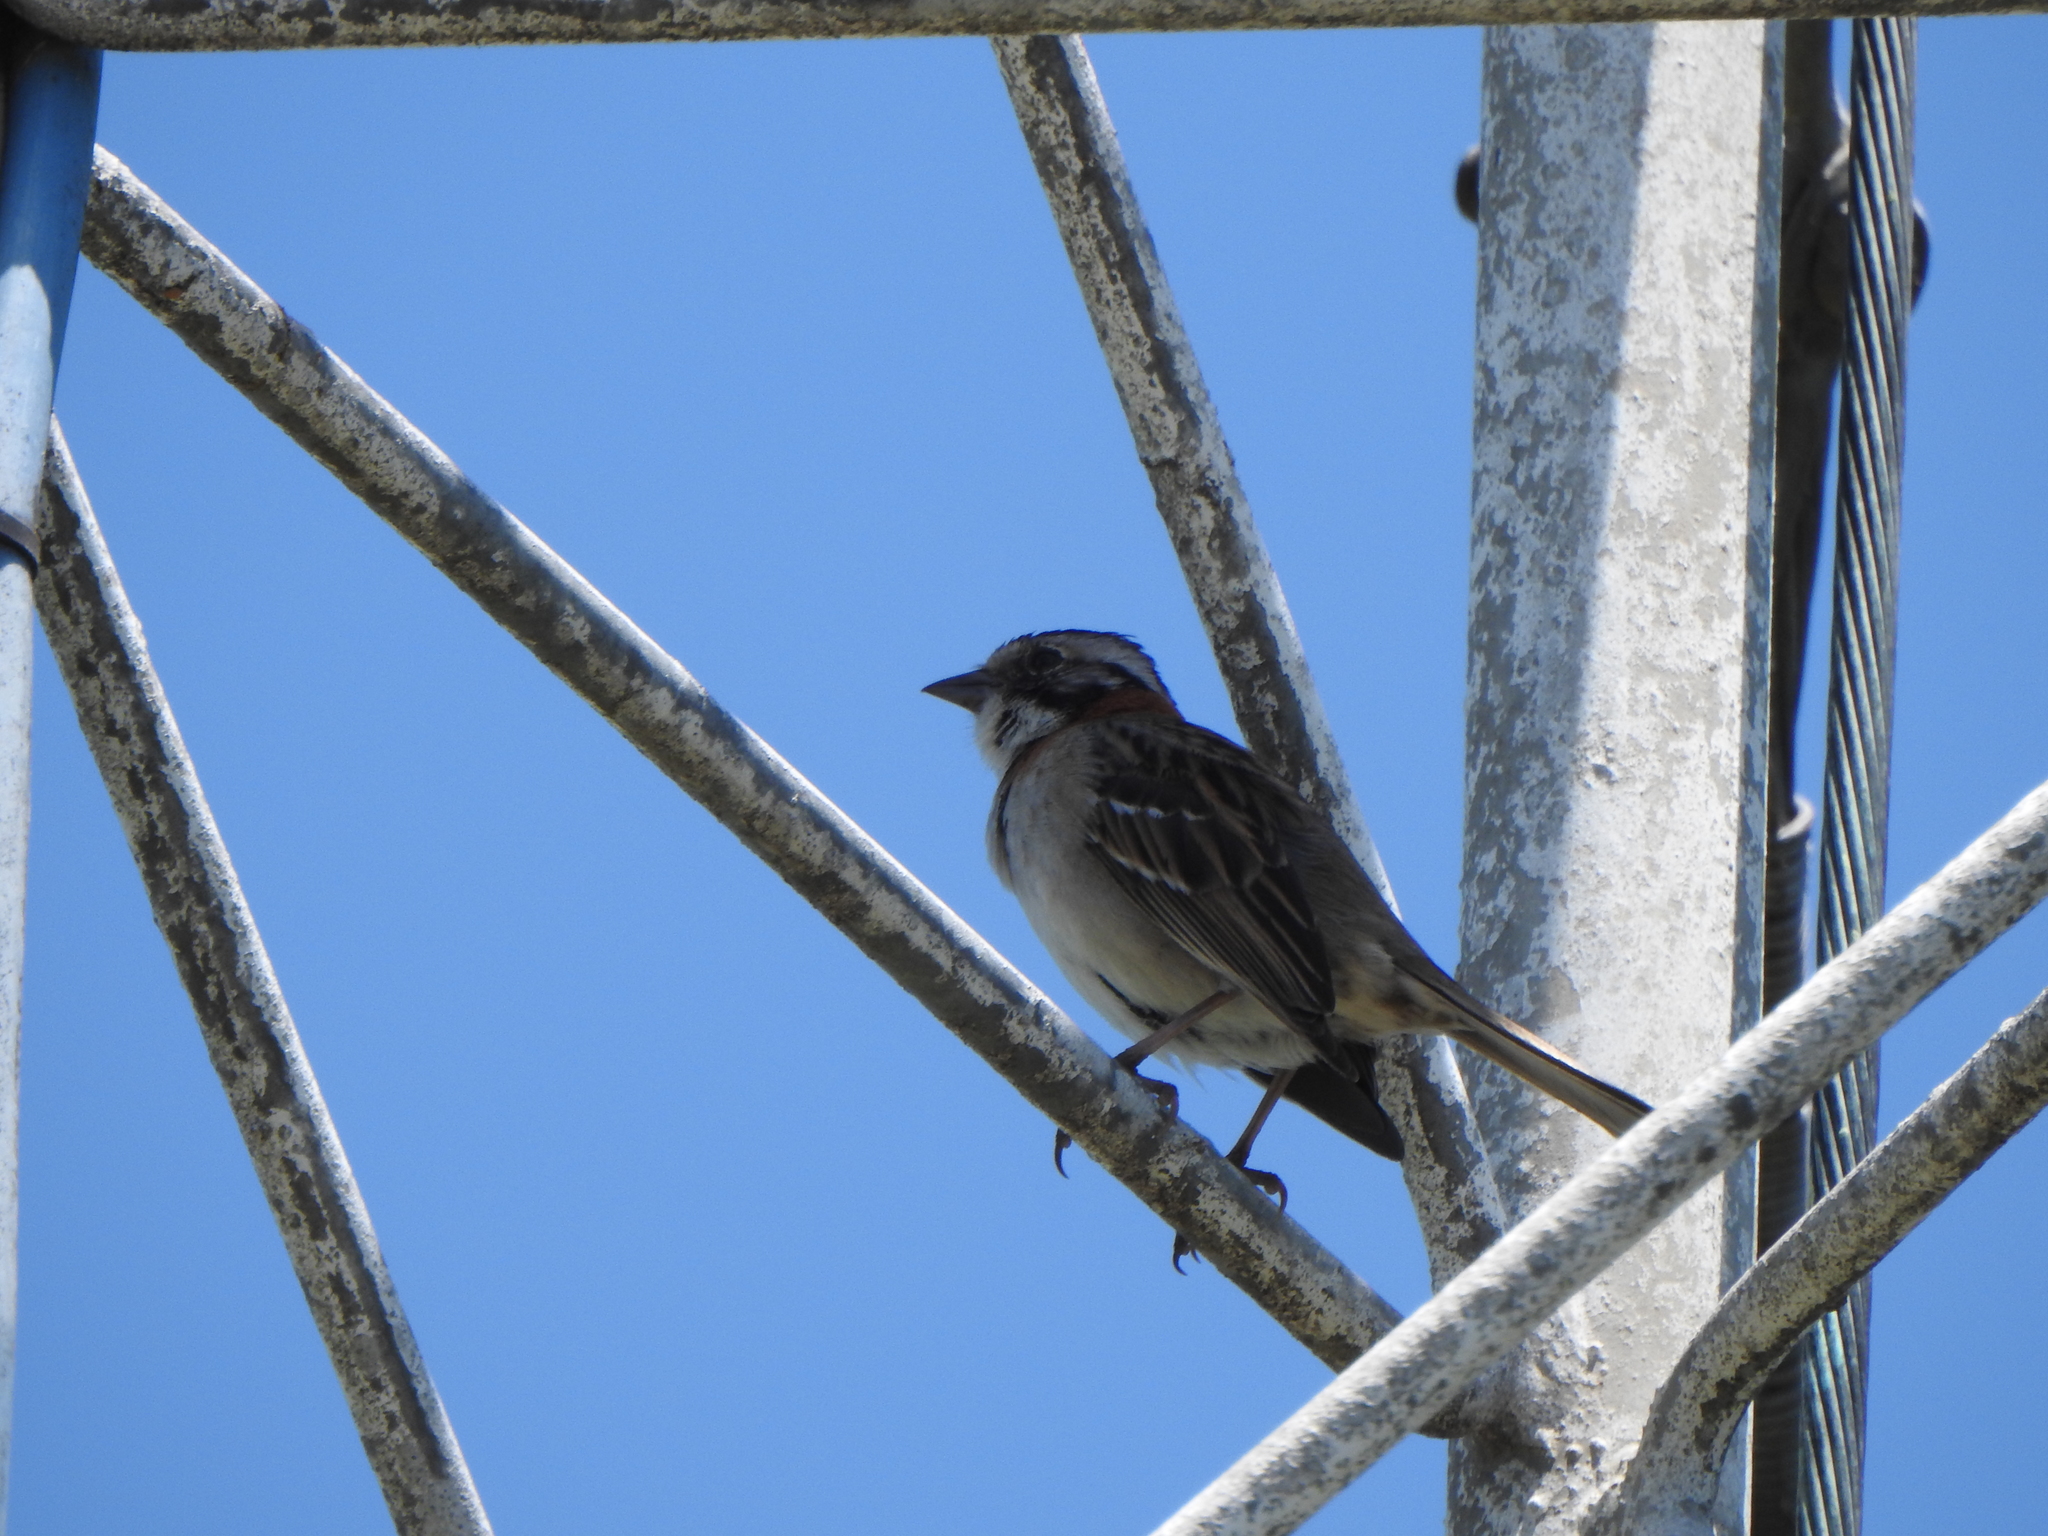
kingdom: Animalia
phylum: Chordata
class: Aves
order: Passeriformes
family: Passerellidae
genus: Zonotrichia
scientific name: Zonotrichia capensis
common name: Rufous-collared sparrow
